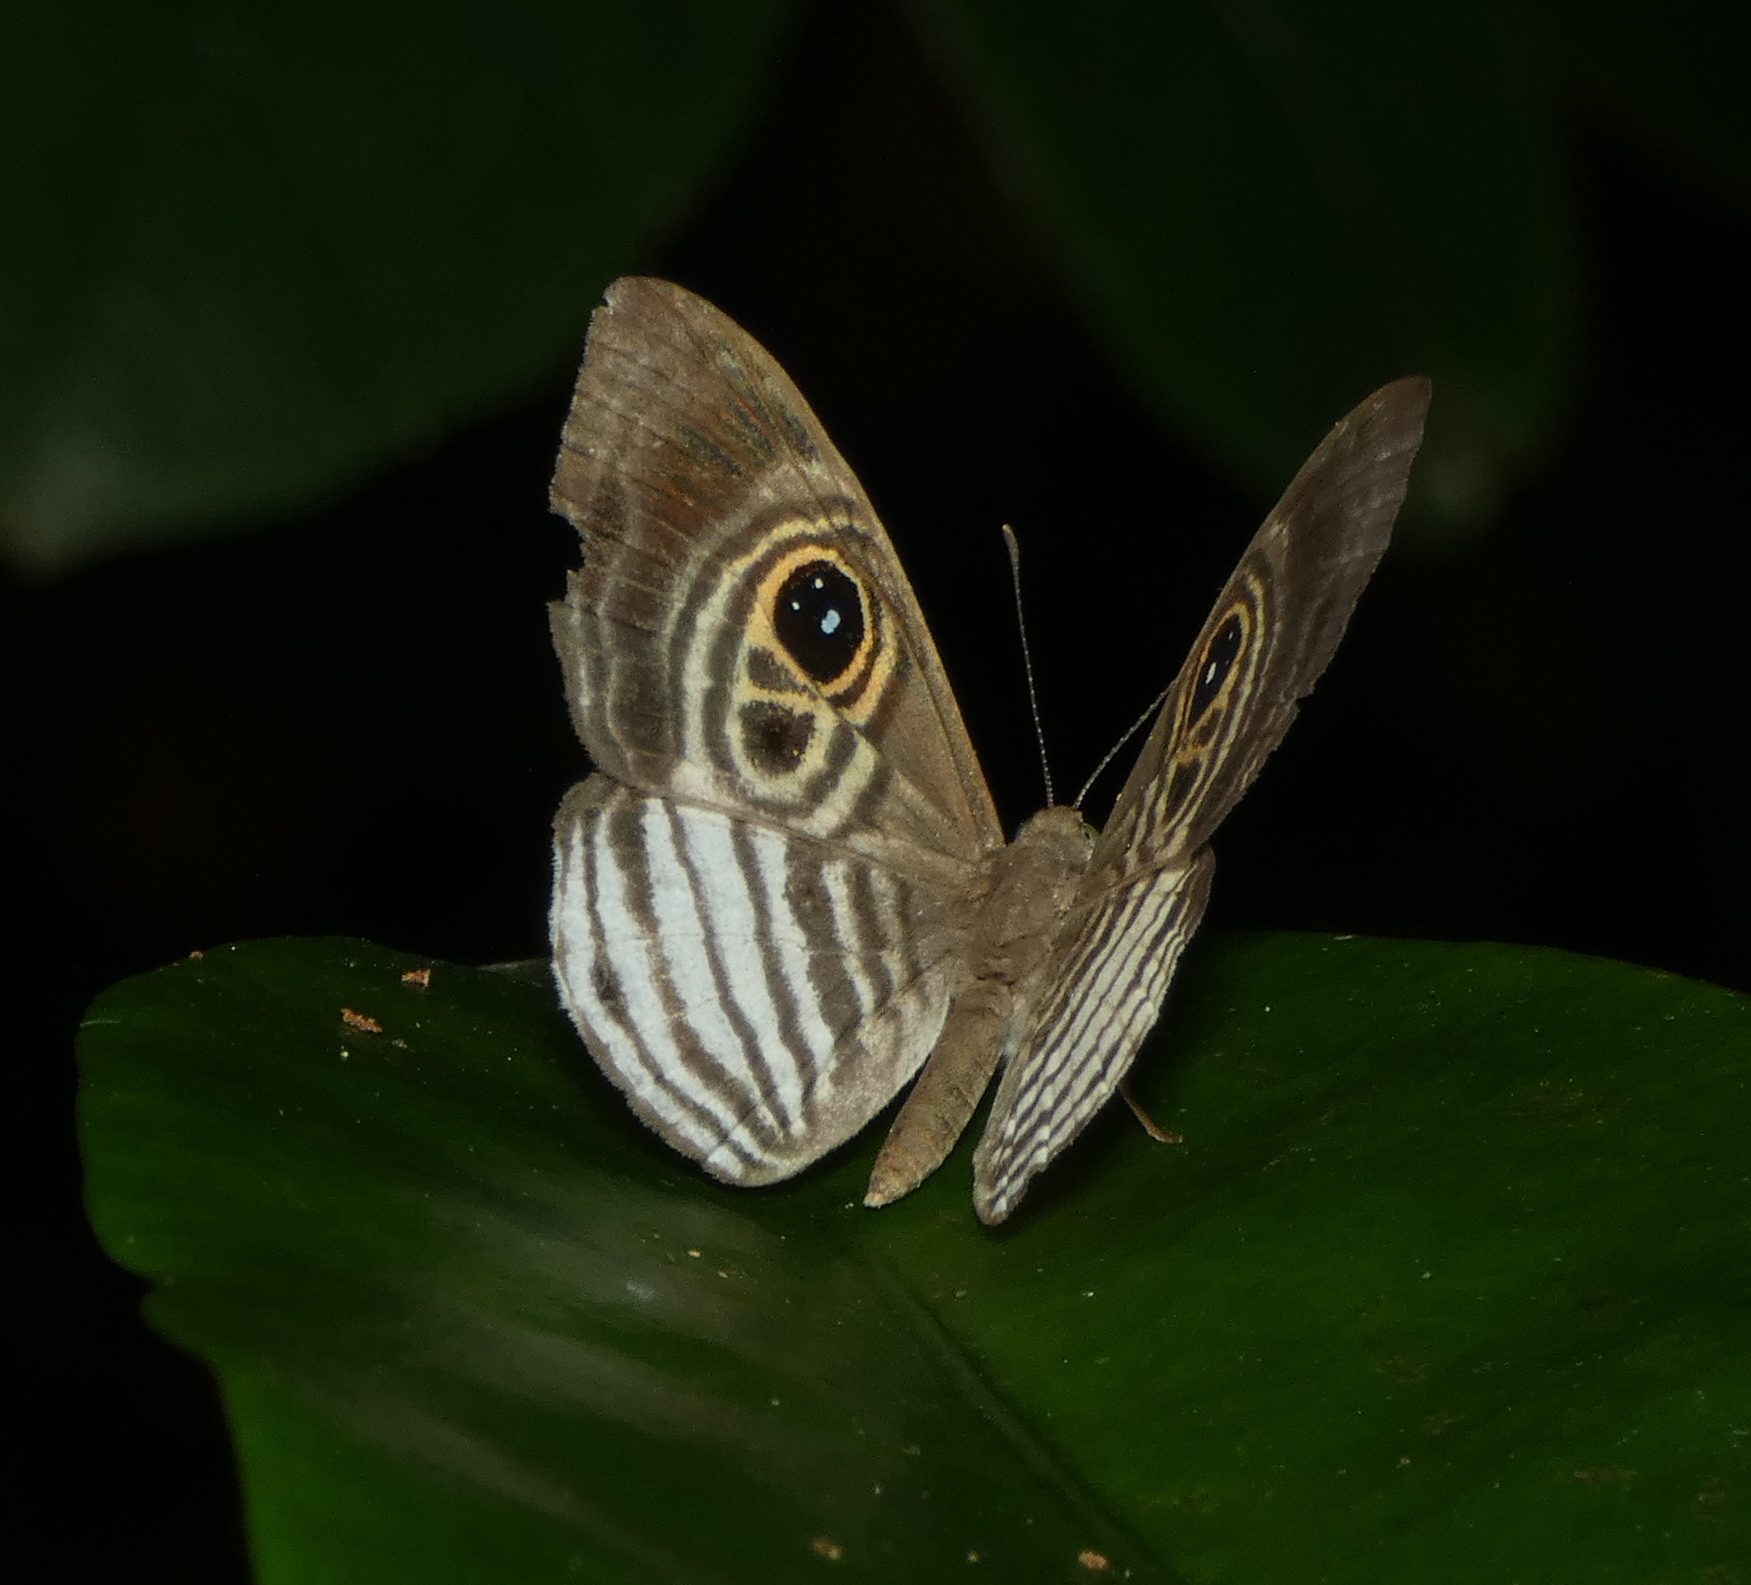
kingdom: Animalia
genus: Mesosemia
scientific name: Mesosemia minos
